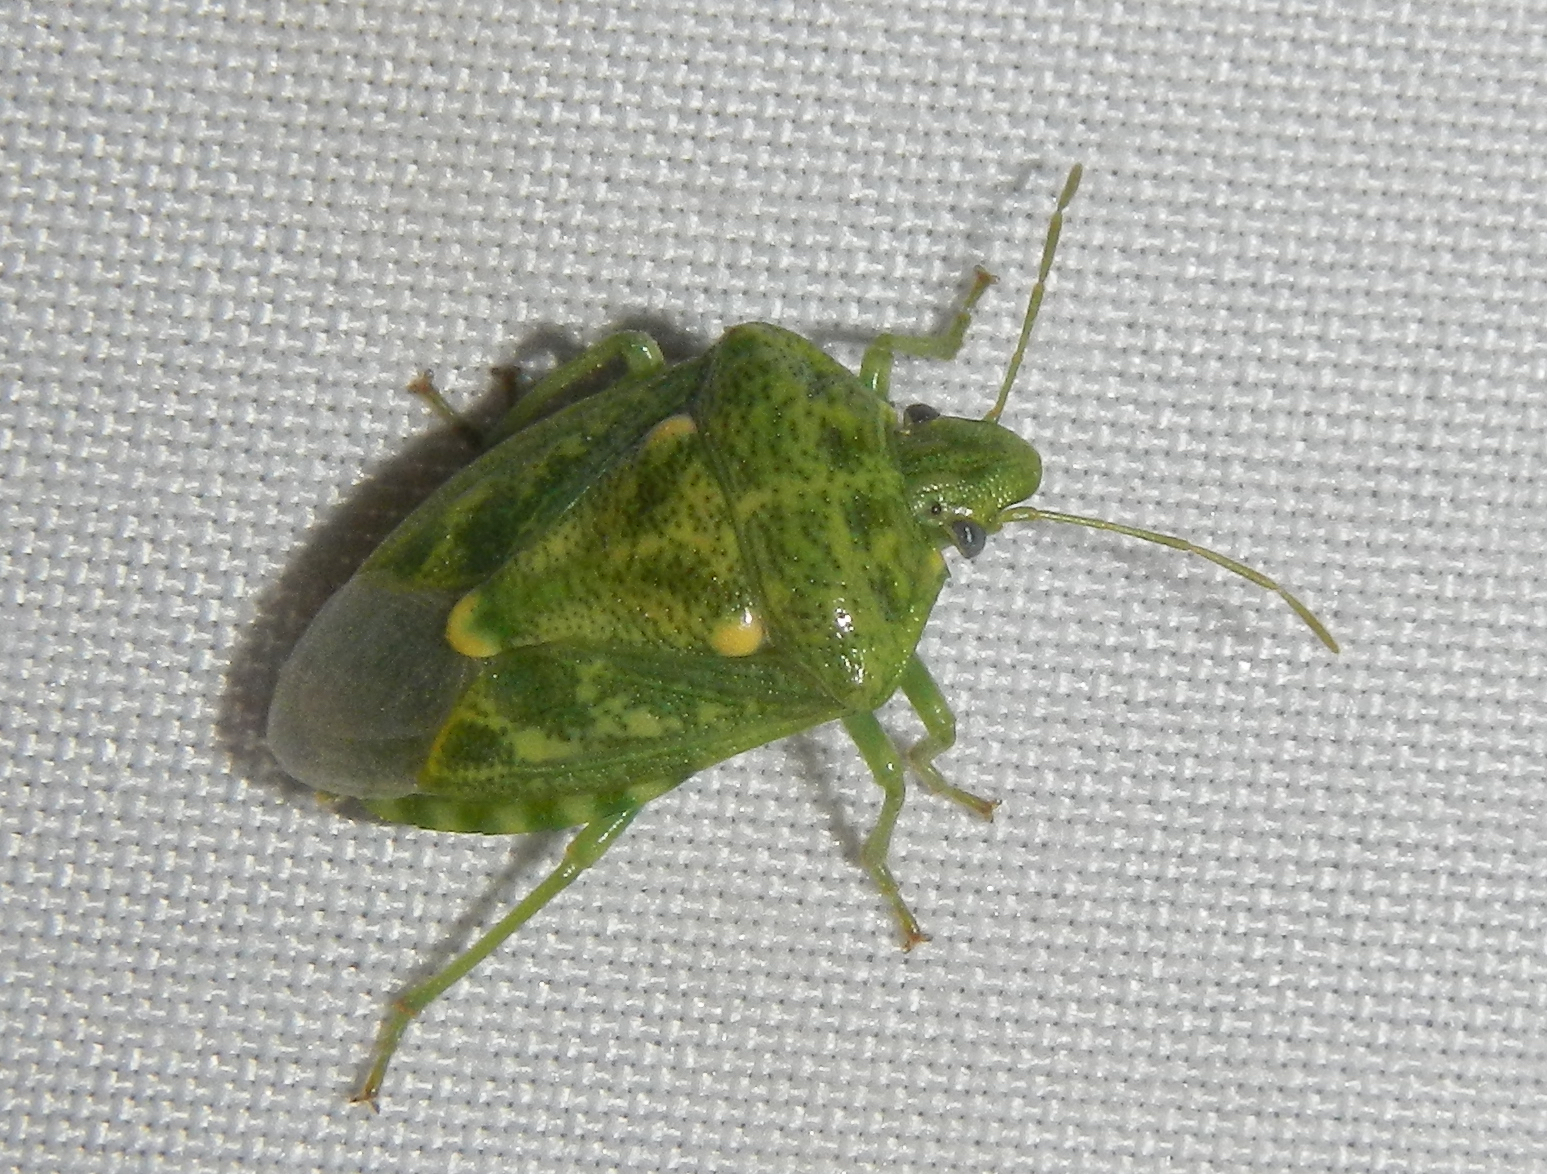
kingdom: Animalia
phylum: Arthropoda
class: Insecta
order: Hemiptera
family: Pentatomidae
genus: Banasa
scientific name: Banasa euchlora
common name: Cedar berry bug
